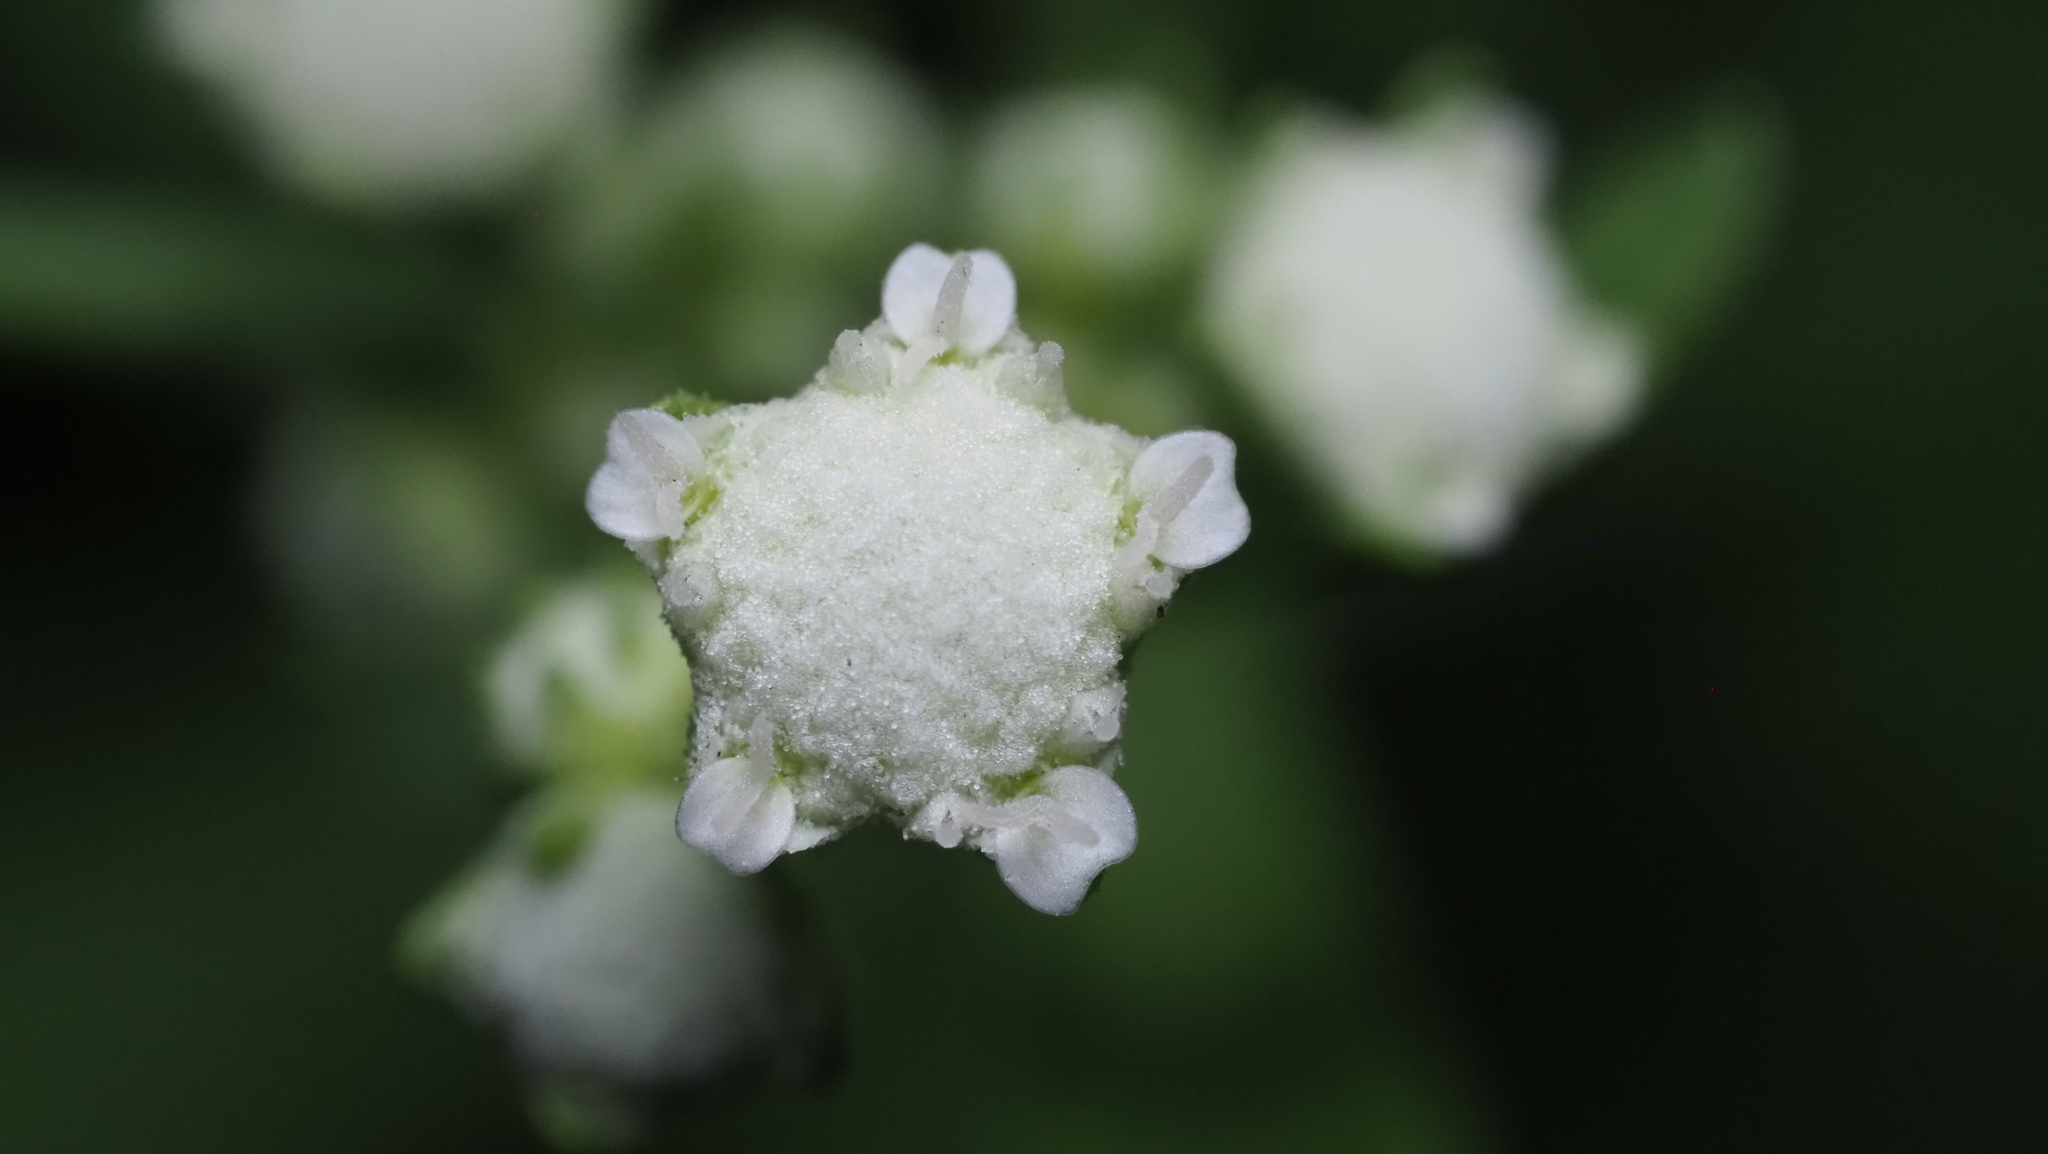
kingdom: Plantae
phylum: Tracheophyta
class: Magnoliopsida
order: Asterales
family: Asteraceae
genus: Parthenium
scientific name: Parthenium hysterophorus
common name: Santa maria feverfew
